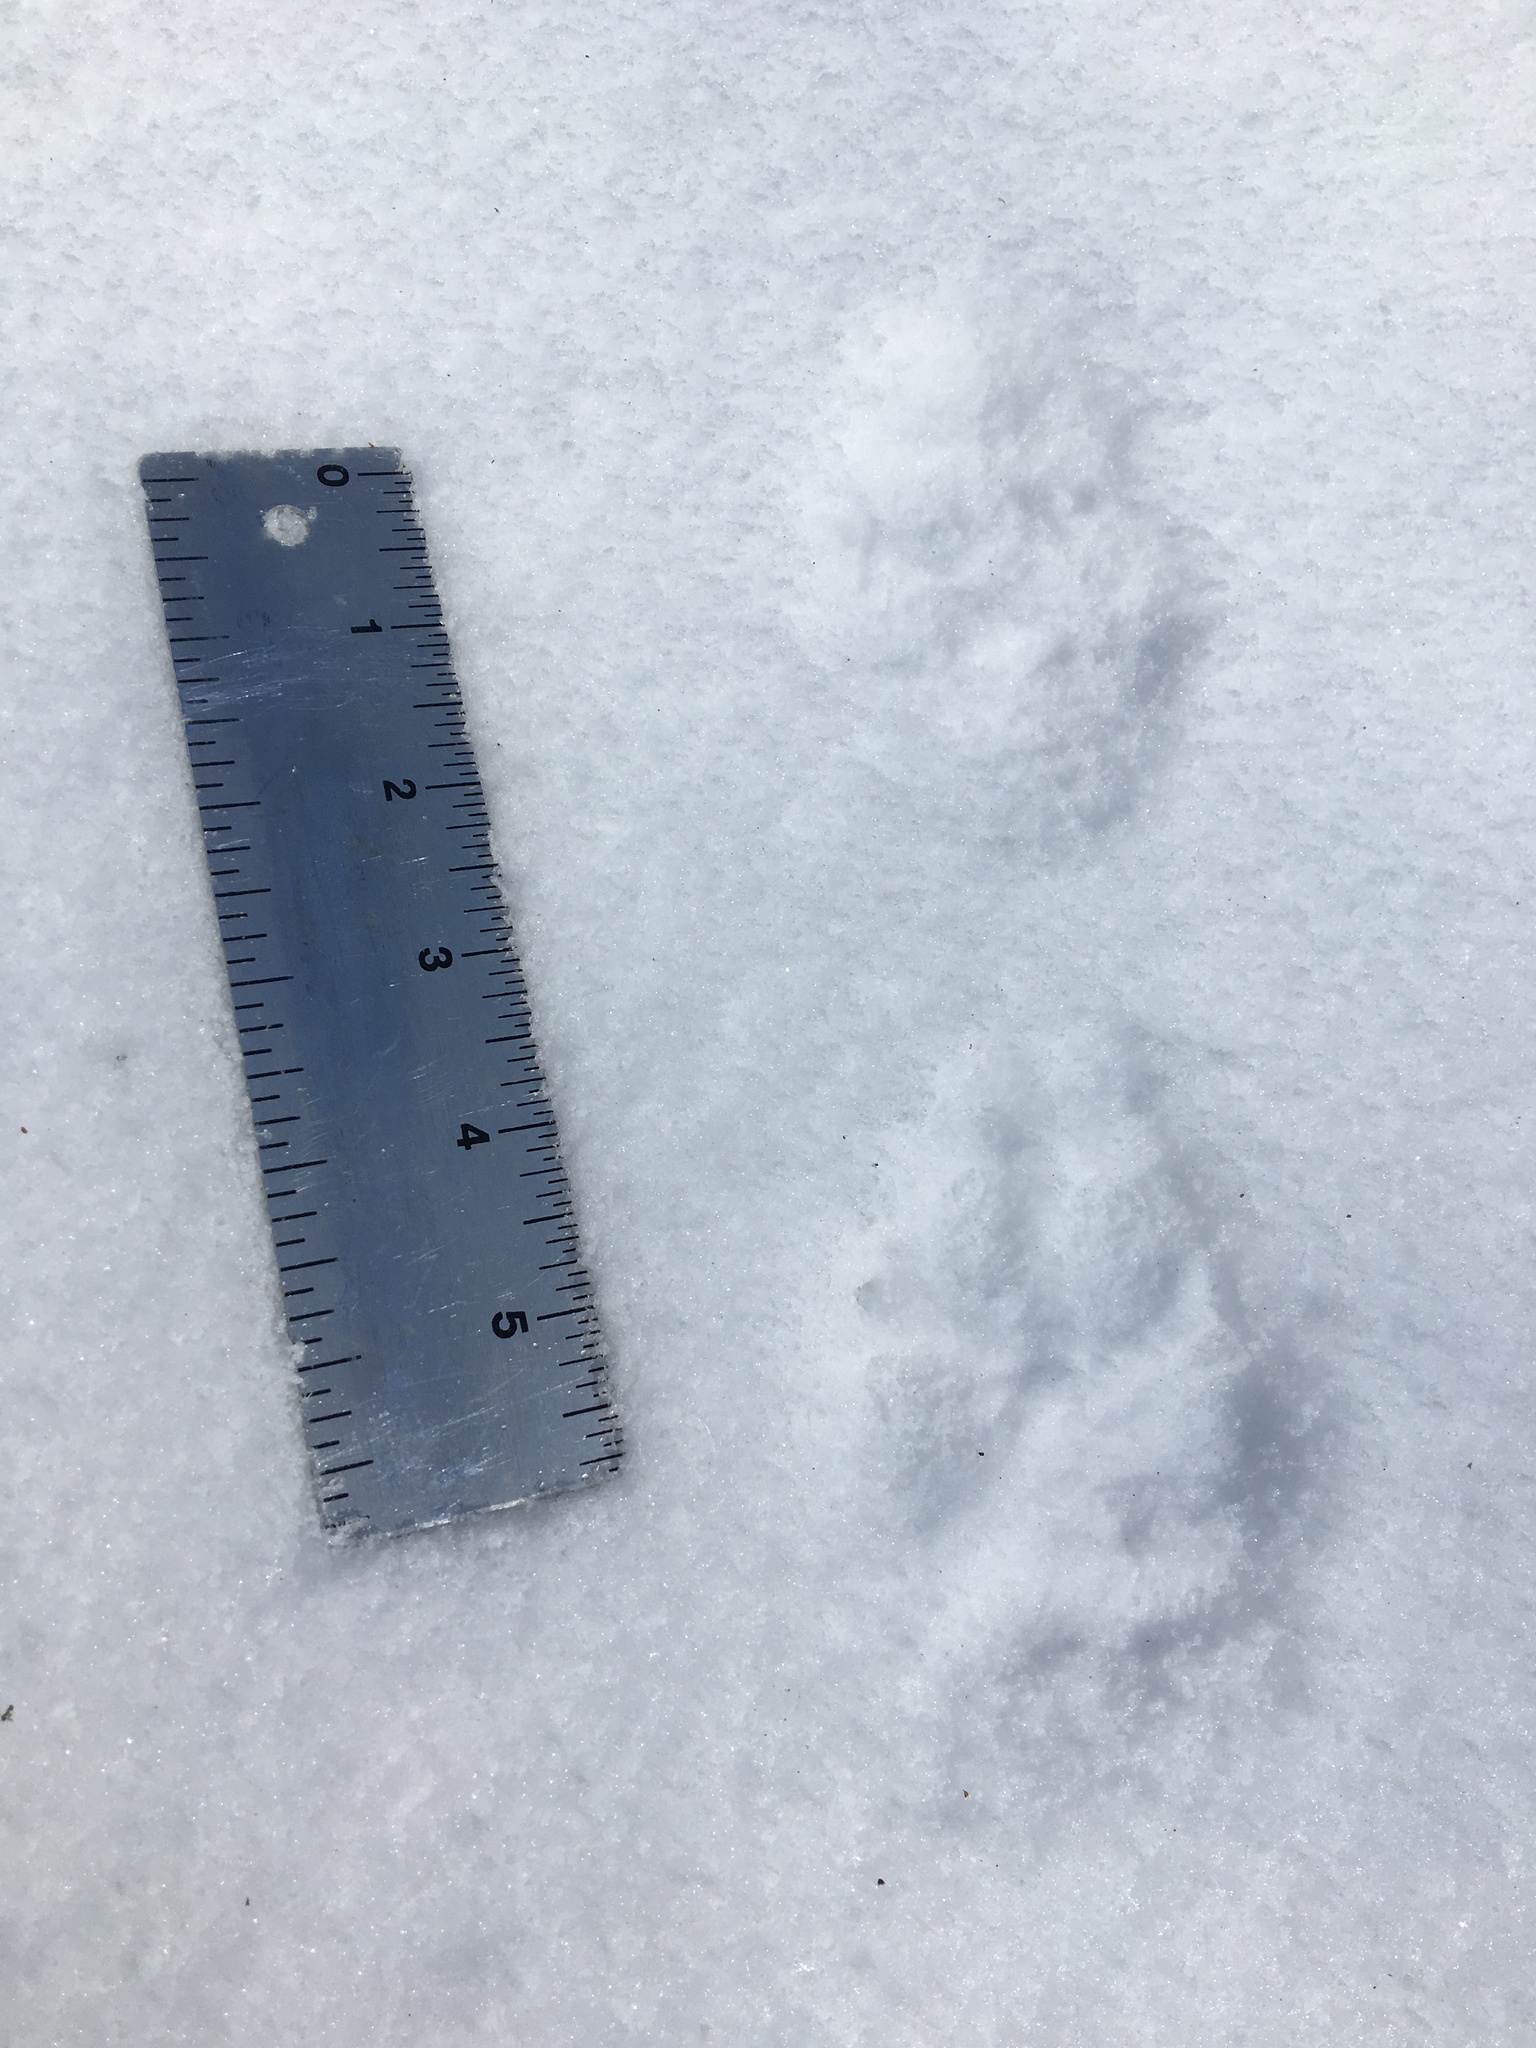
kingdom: Animalia
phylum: Chordata
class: Mammalia
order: Carnivora
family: Canidae
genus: Canis
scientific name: Canis latrans
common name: Coyote
